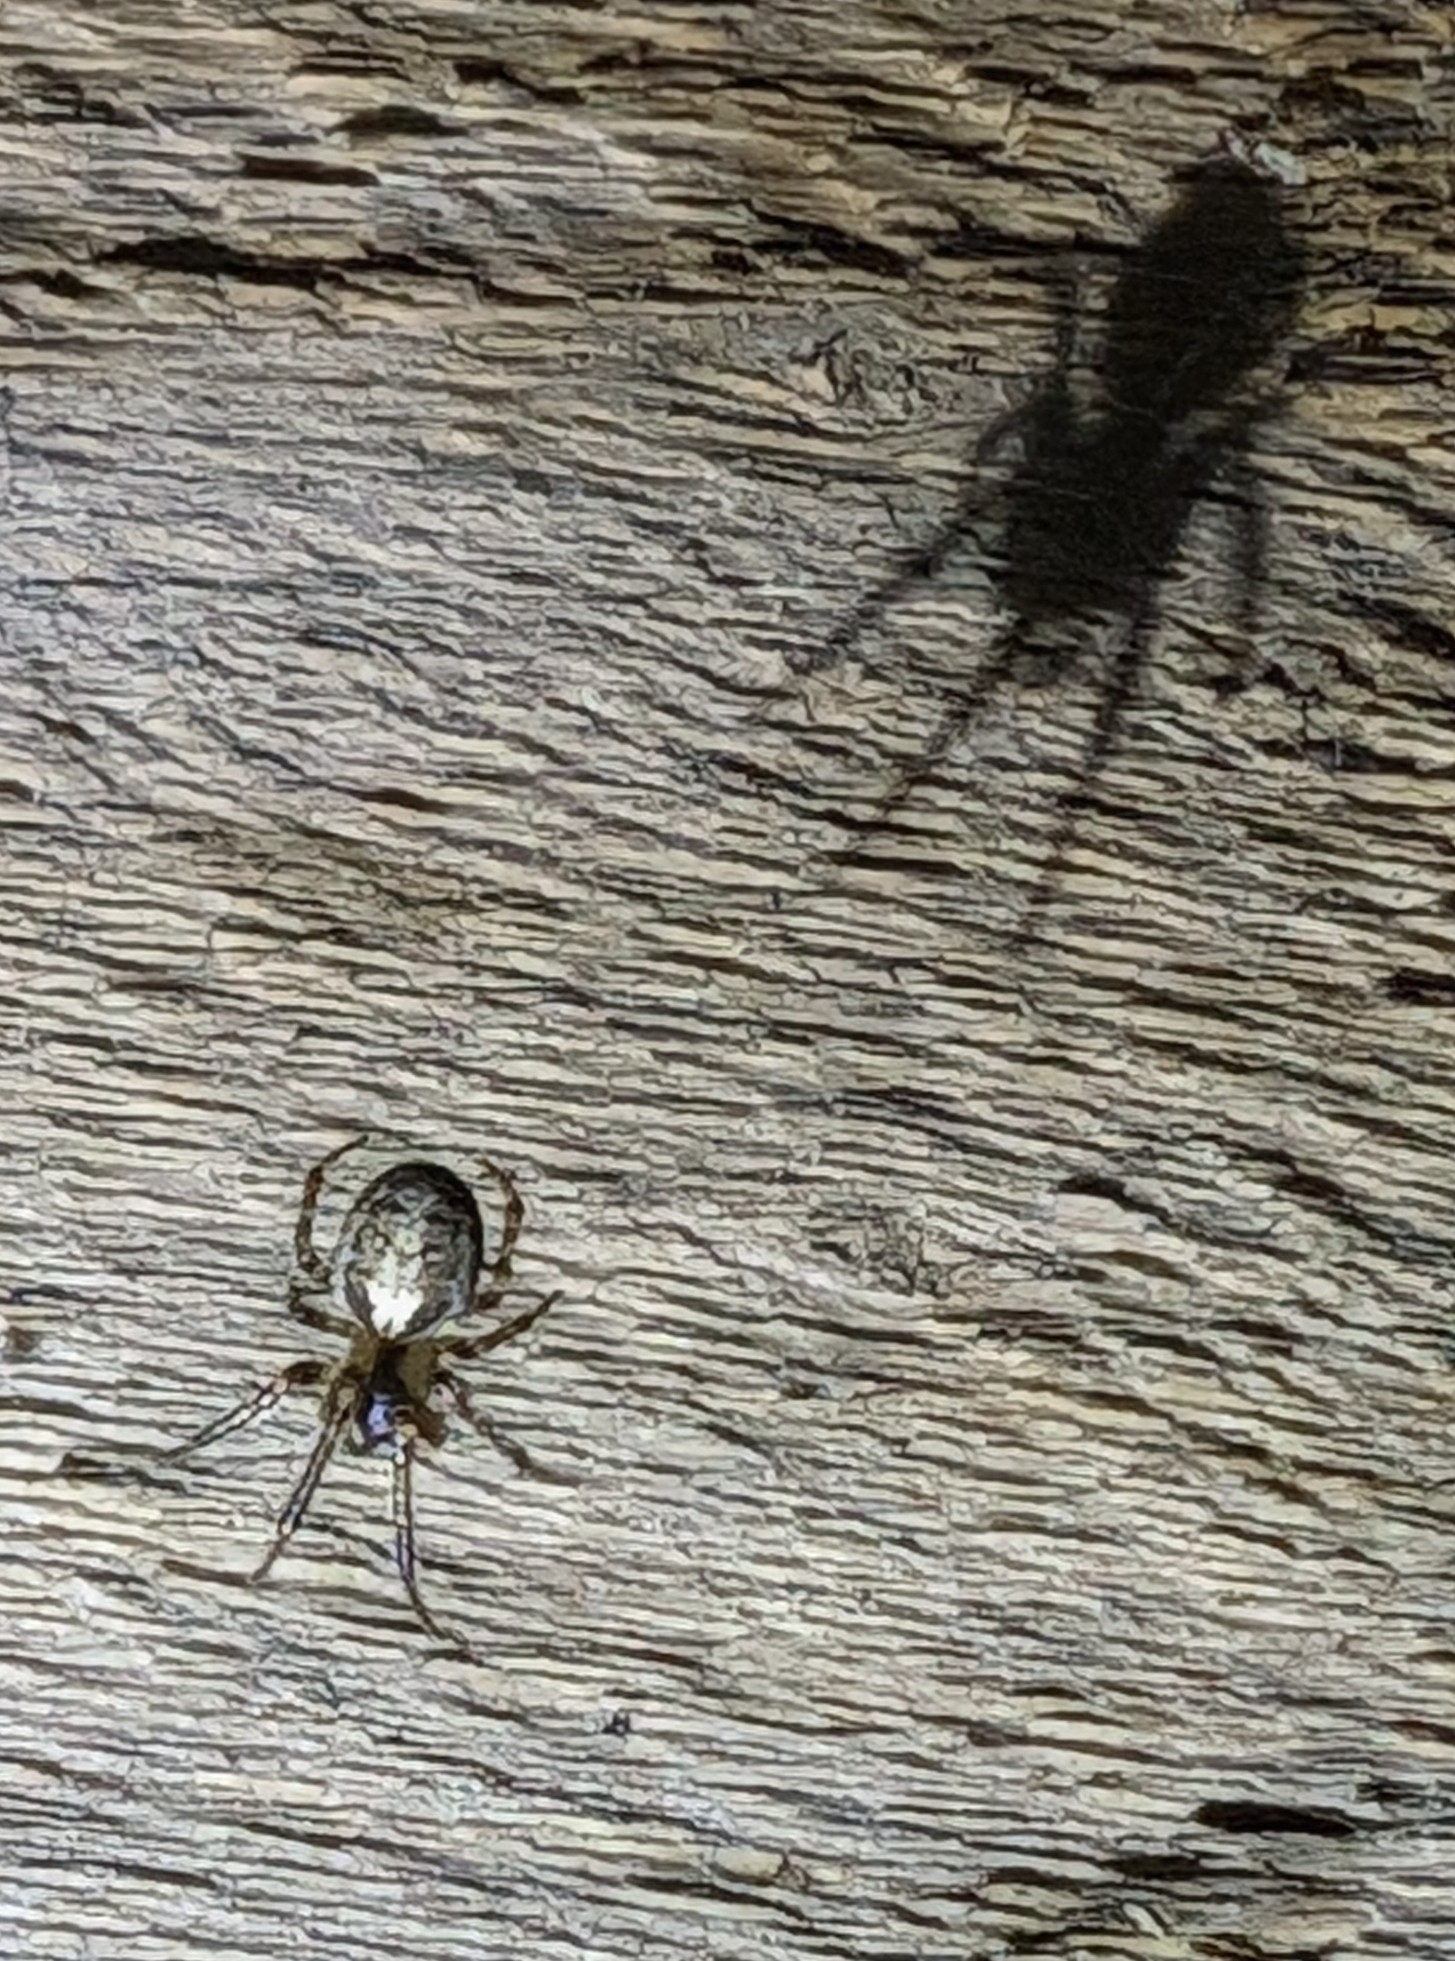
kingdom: Animalia
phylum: Arthropoda
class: Arachnida
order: Araneae
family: Araneidae
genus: Zygiella
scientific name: Zygiella x-notata
